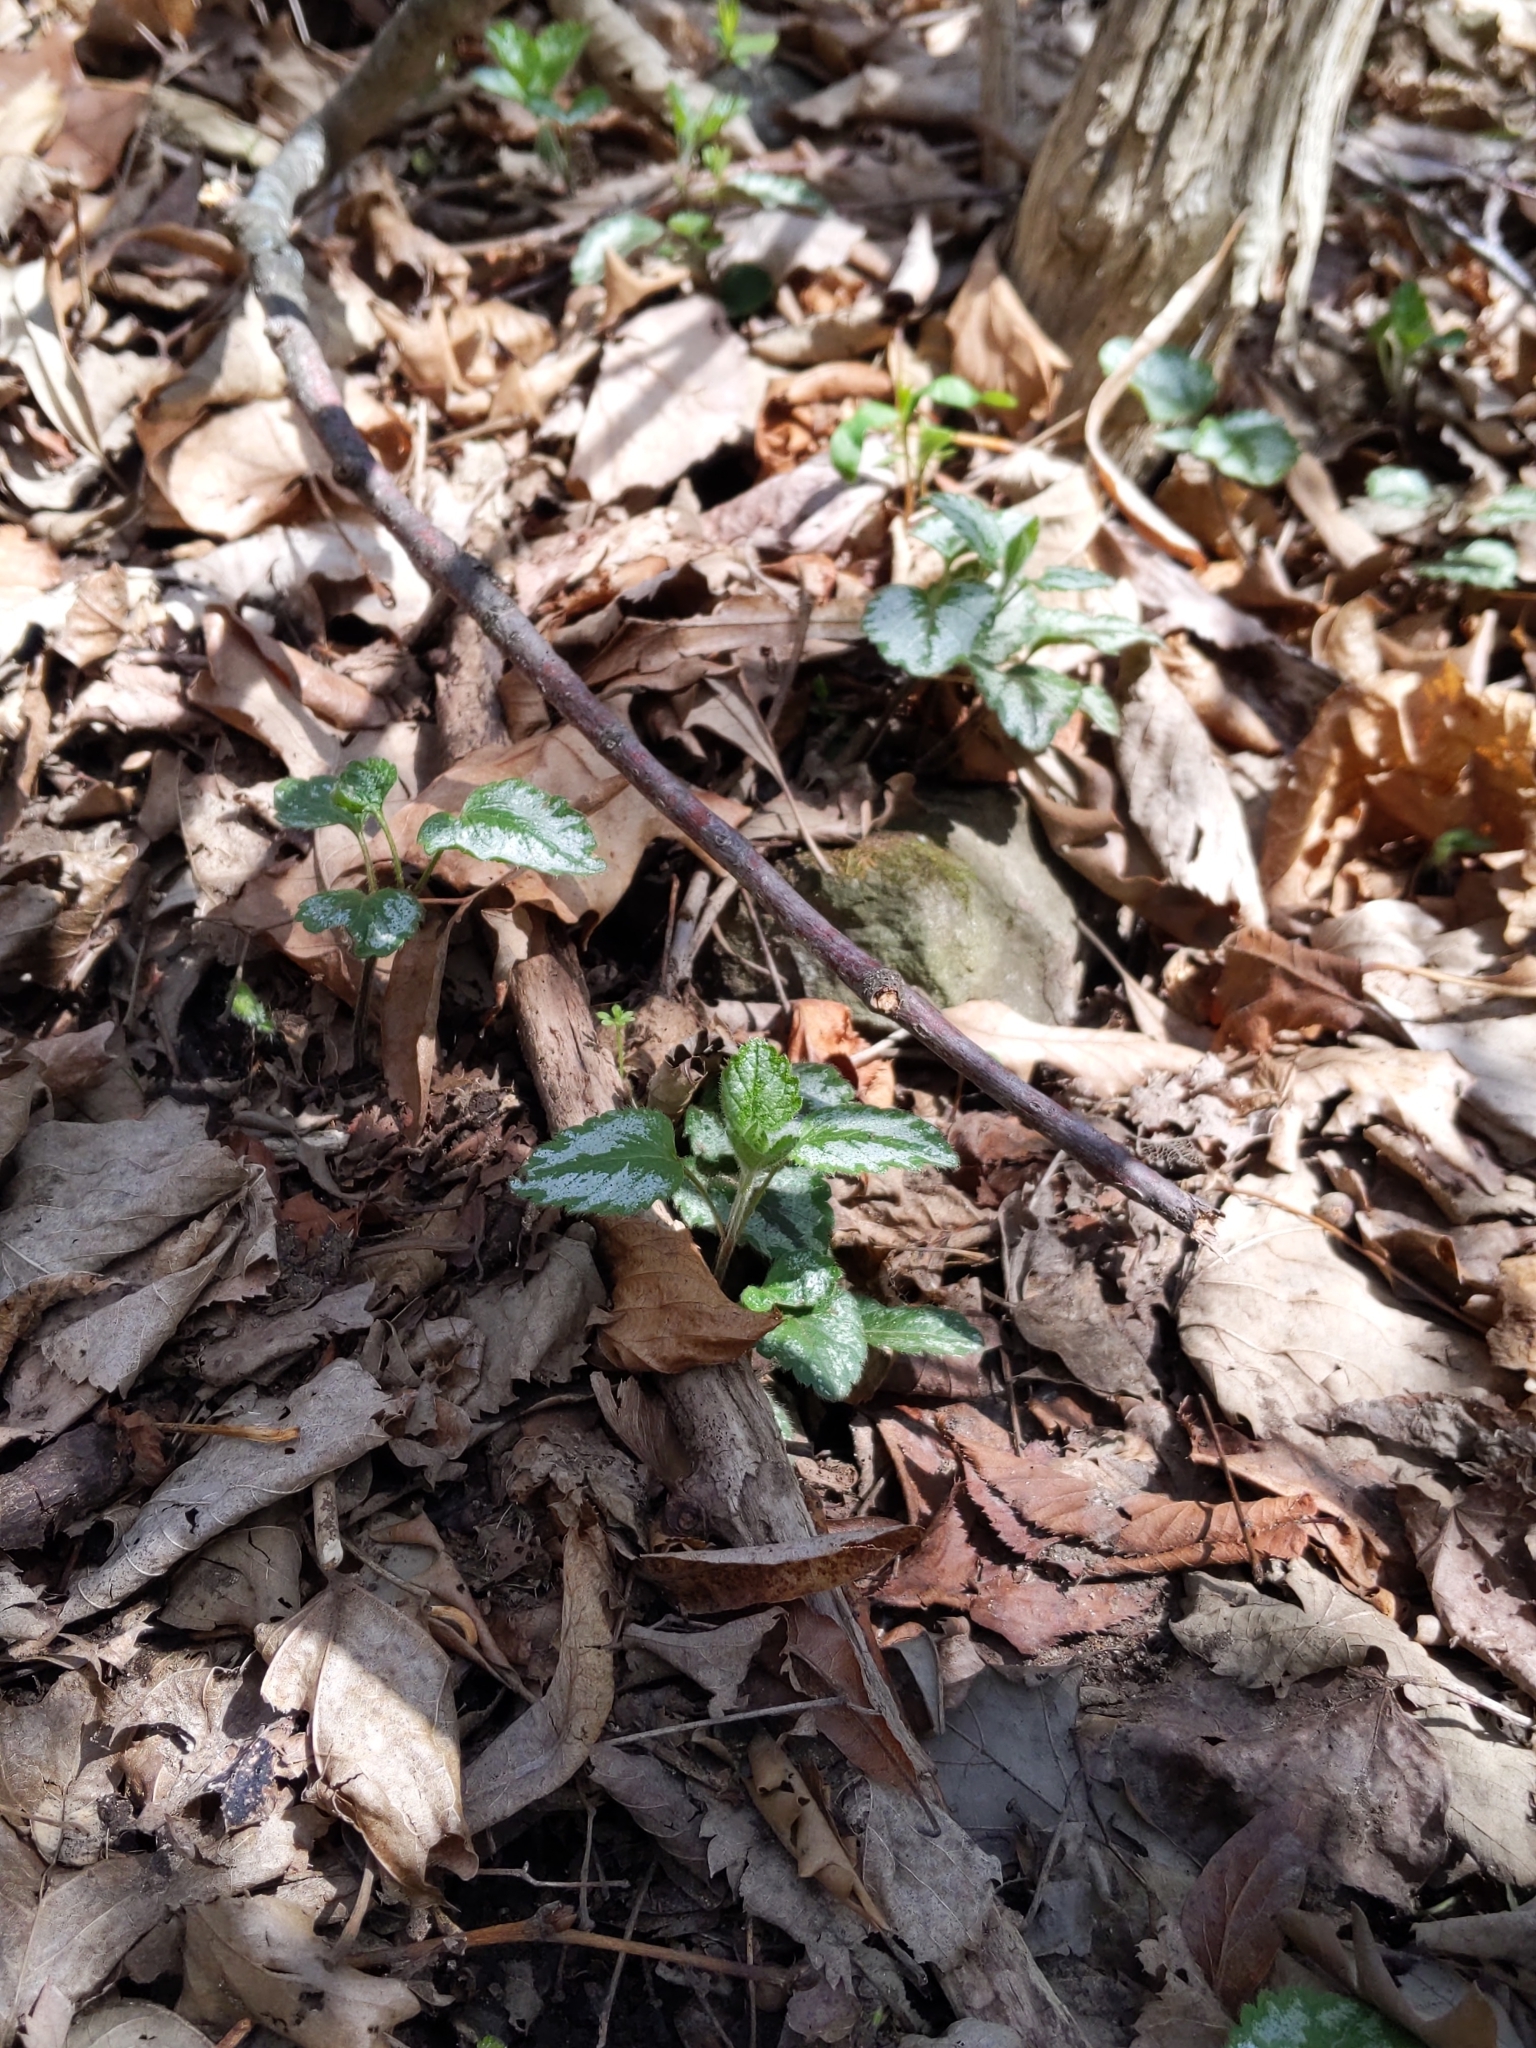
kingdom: Plantae
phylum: Tracheophyta
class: Magnoliopsida
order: Lamiales
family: Lamiaceae
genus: Lamium
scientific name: Lamium galeobdolon
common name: Yellow archangel
